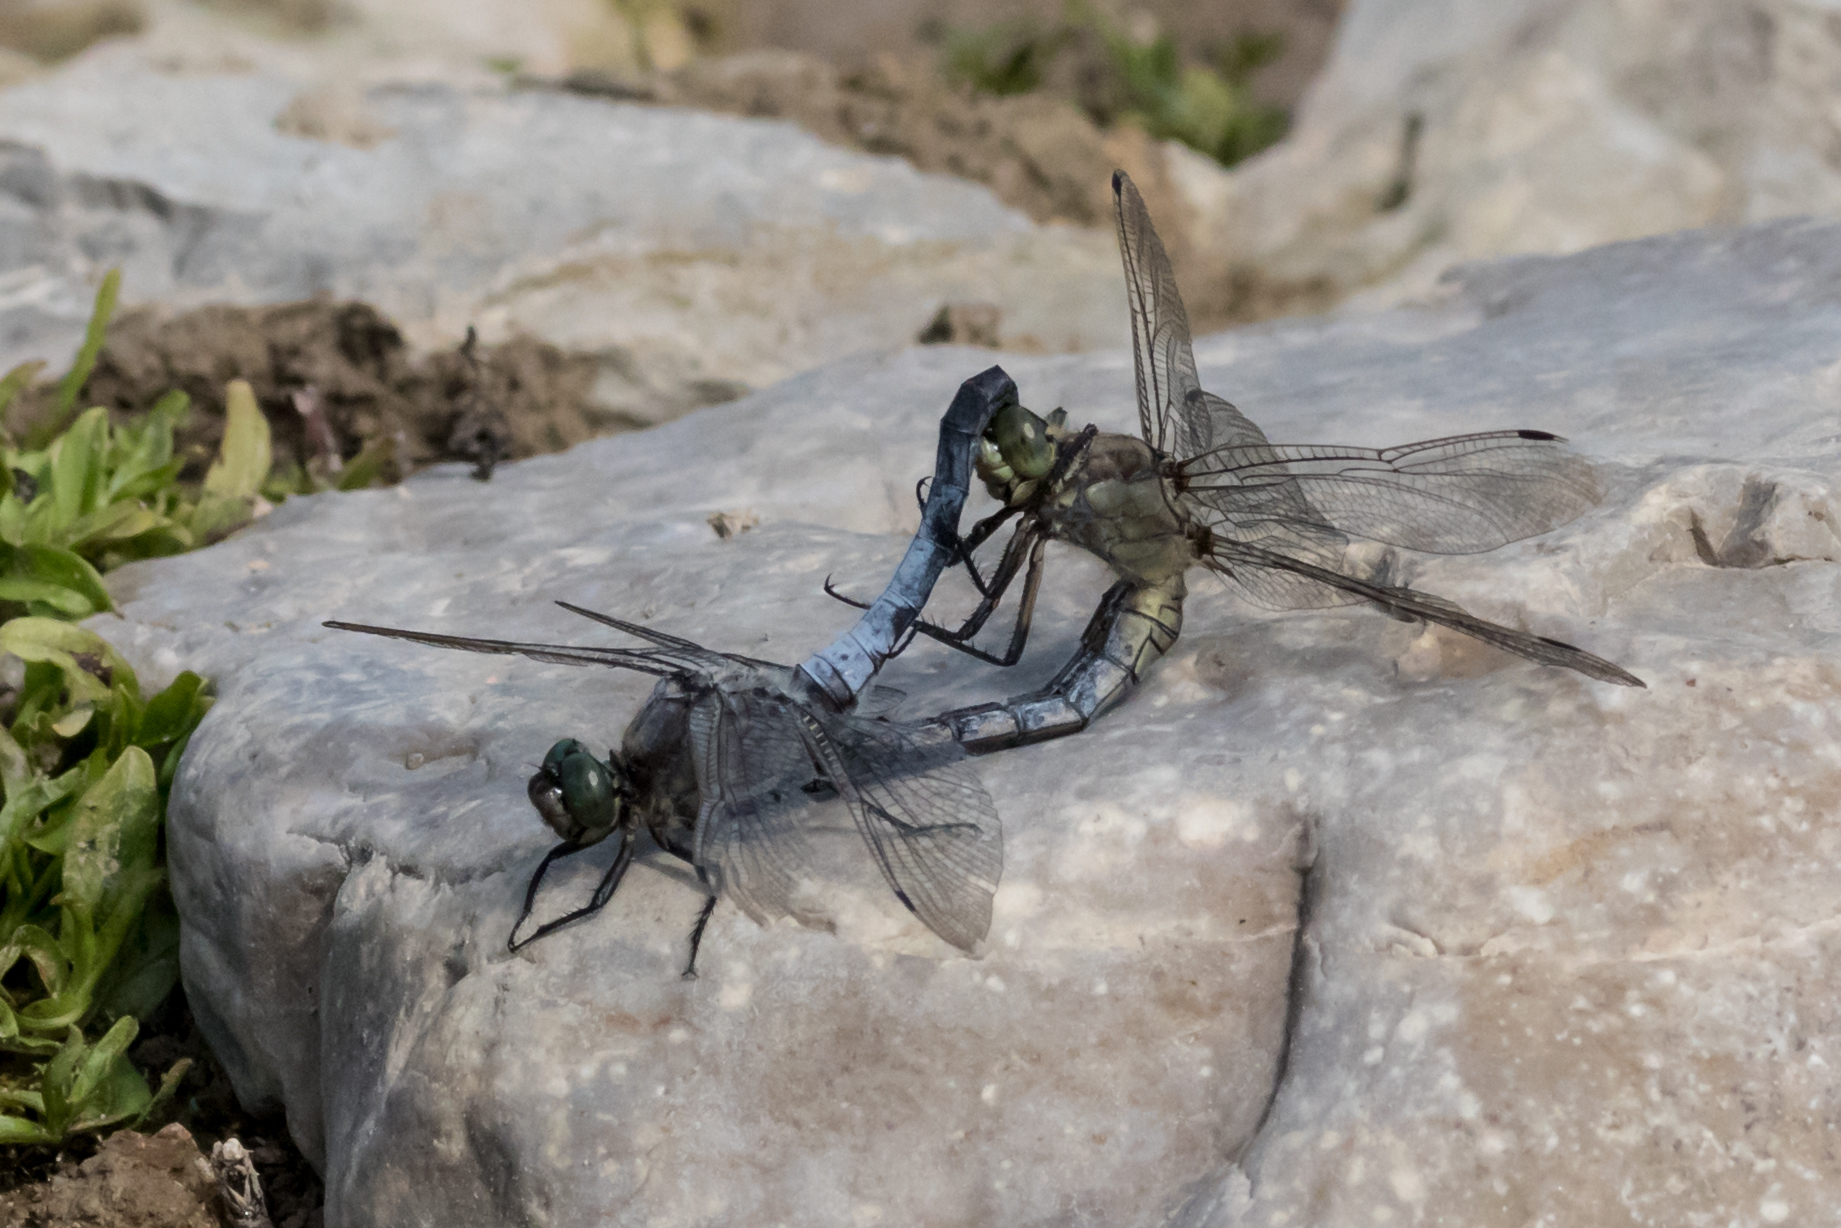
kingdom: Animalia
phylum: Arthropoda
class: Insecta
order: Odonata
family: Libellulidae
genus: Orthetrum
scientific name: Orthetrum cancellatum
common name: Black-tailed skimmer
